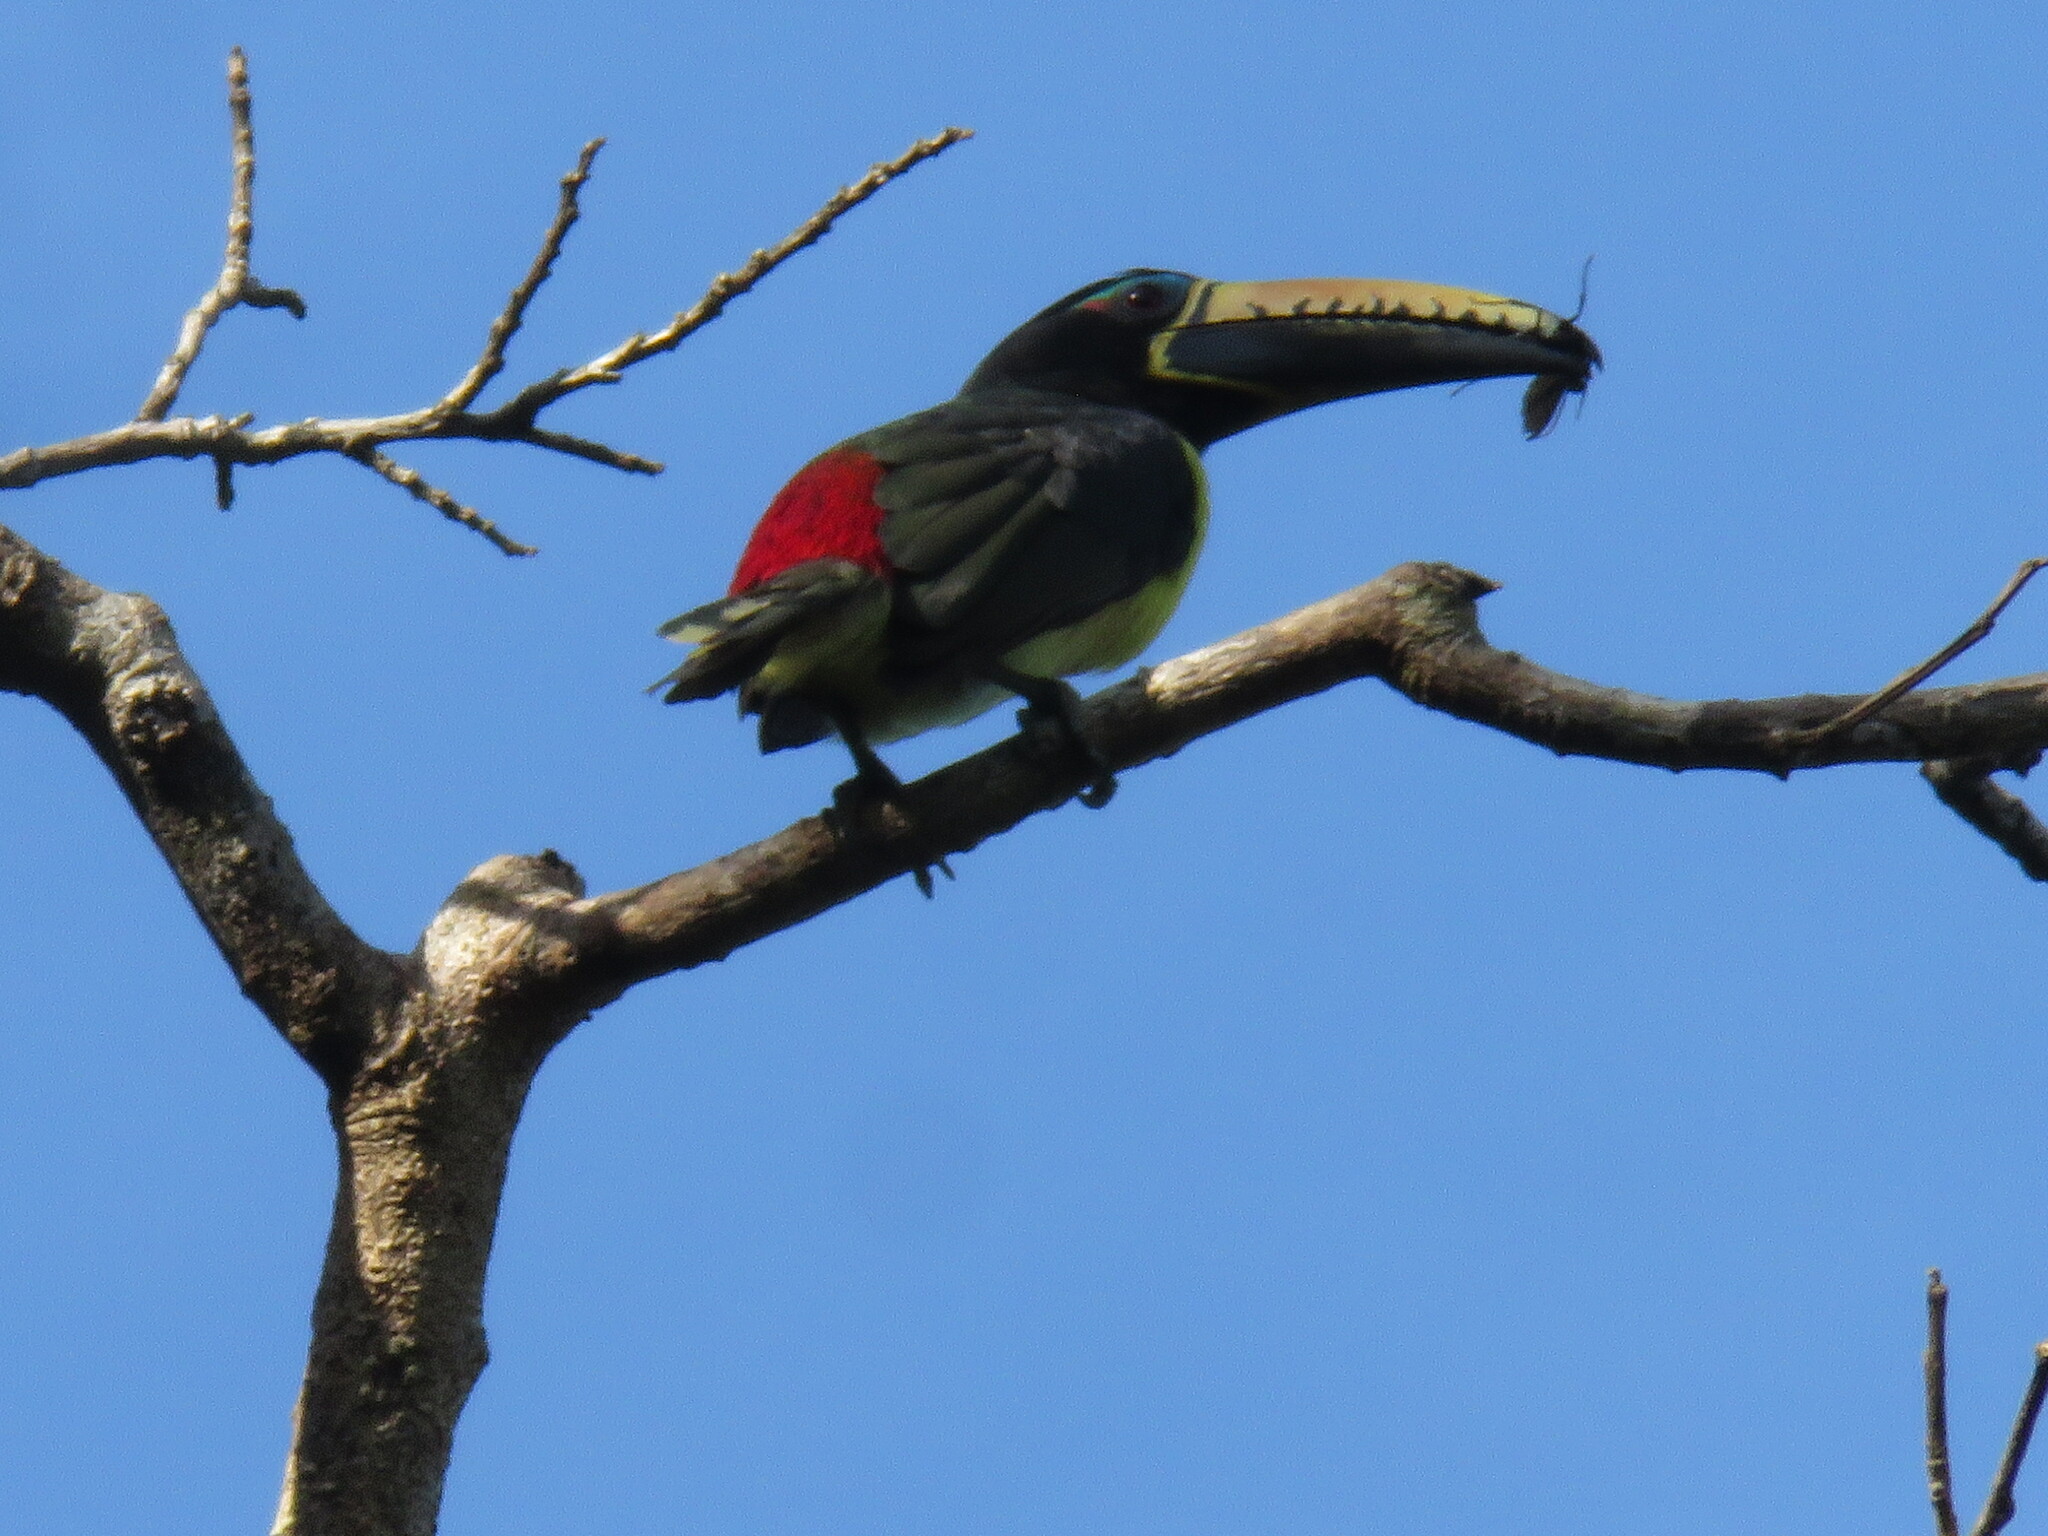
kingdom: Animalia
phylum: Chordata
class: Aves
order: Piciformes
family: Ramphastidae
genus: Pteroglossus
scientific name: Pteroglossus inscriptus
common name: Lettered aracari
